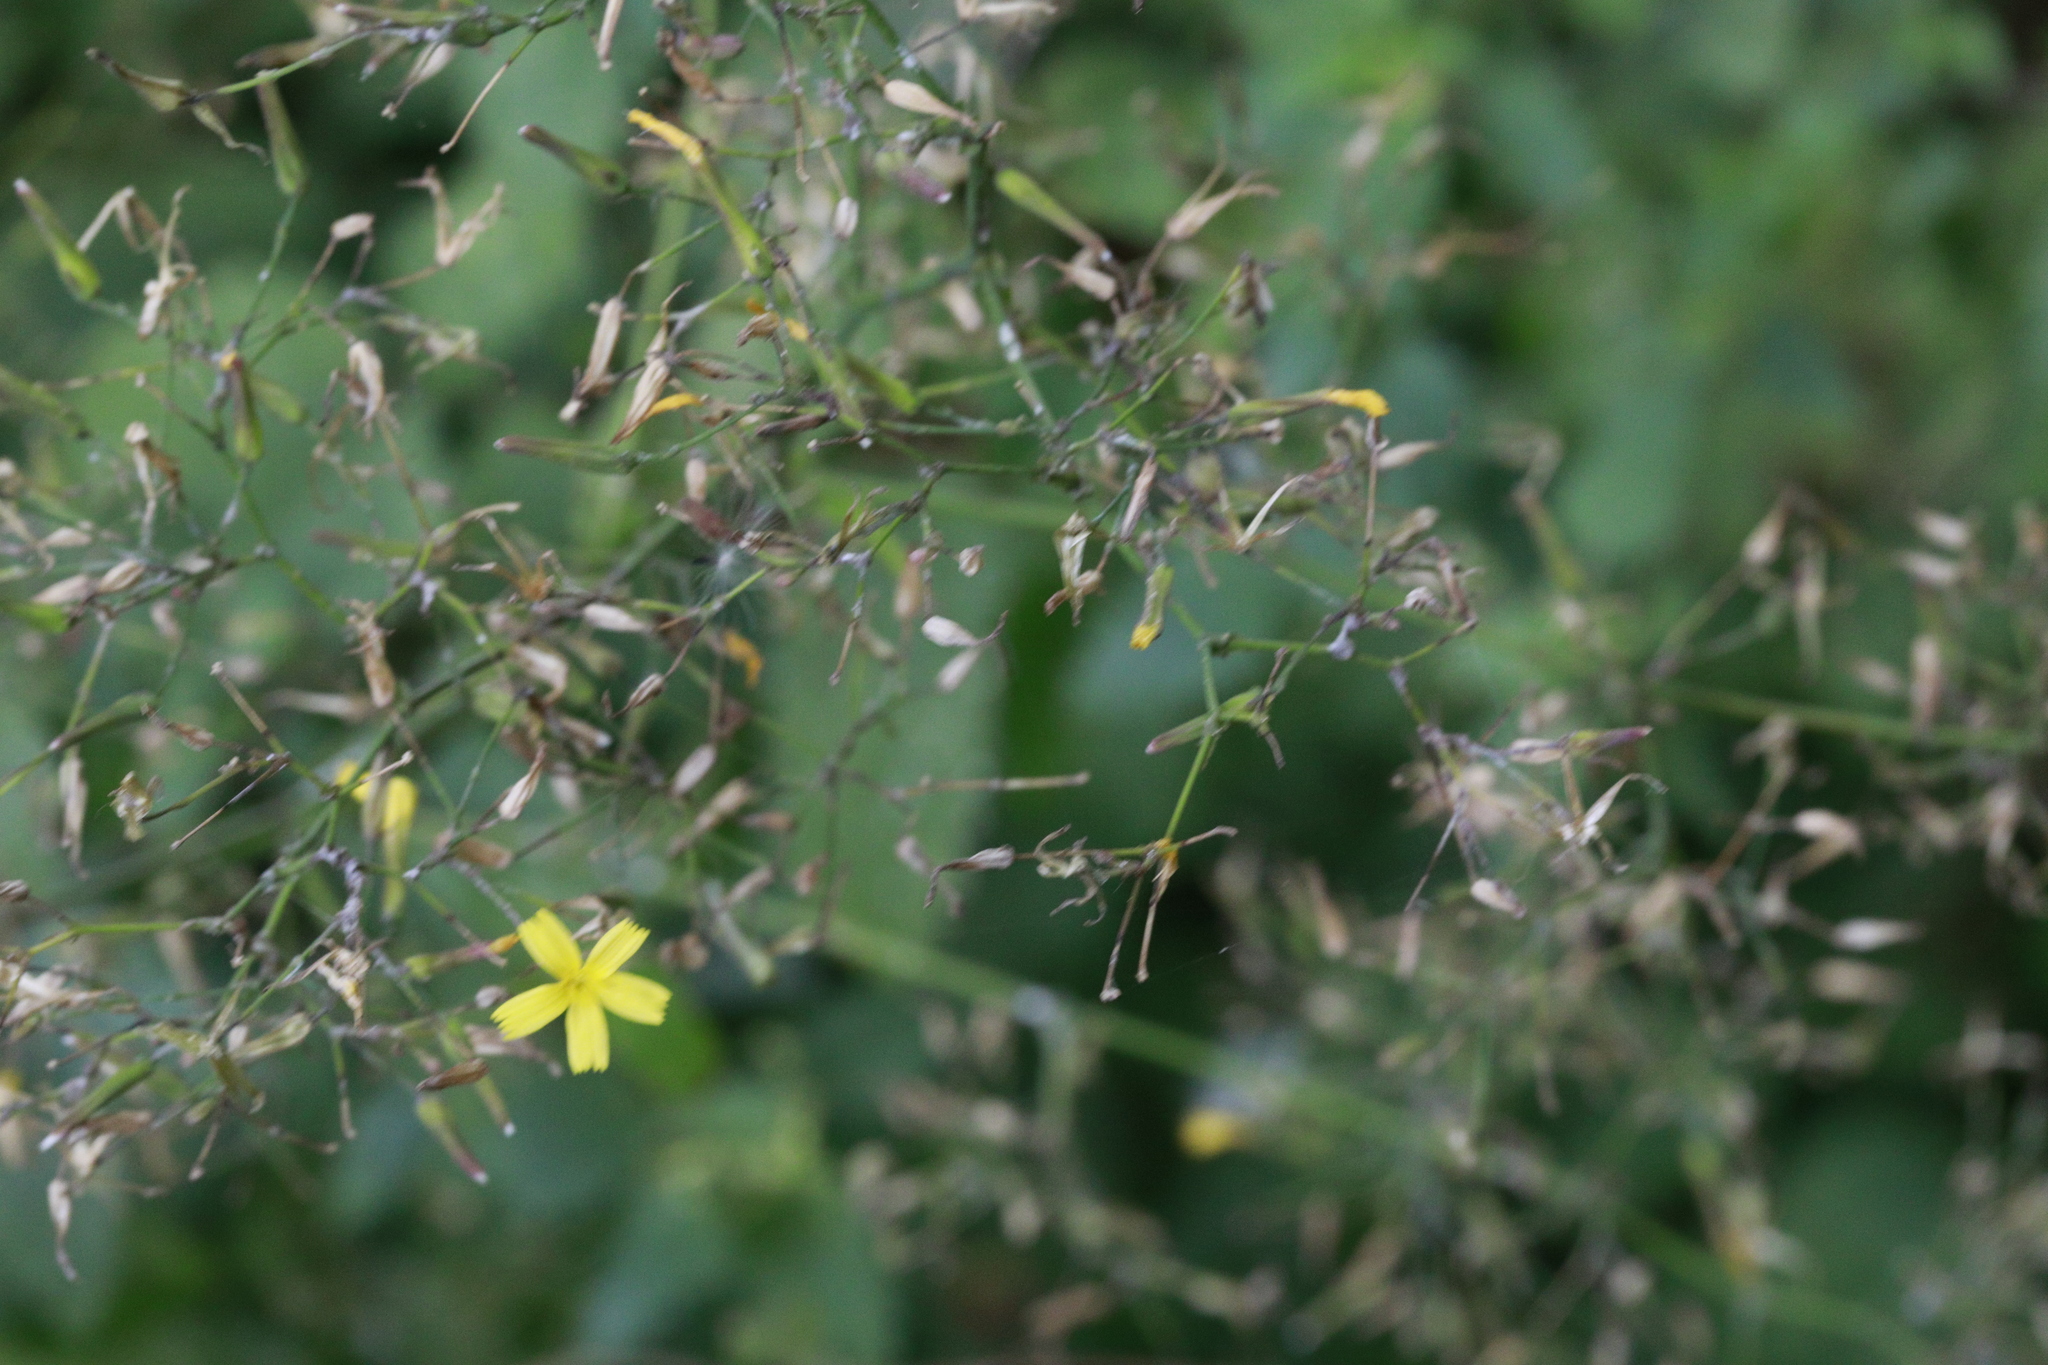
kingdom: Plantae
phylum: Tracheophyta
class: Magnoliopsida
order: Asterales
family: Asteraceae
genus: Mycelis
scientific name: Mycelis muralis
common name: Wall lettuce
